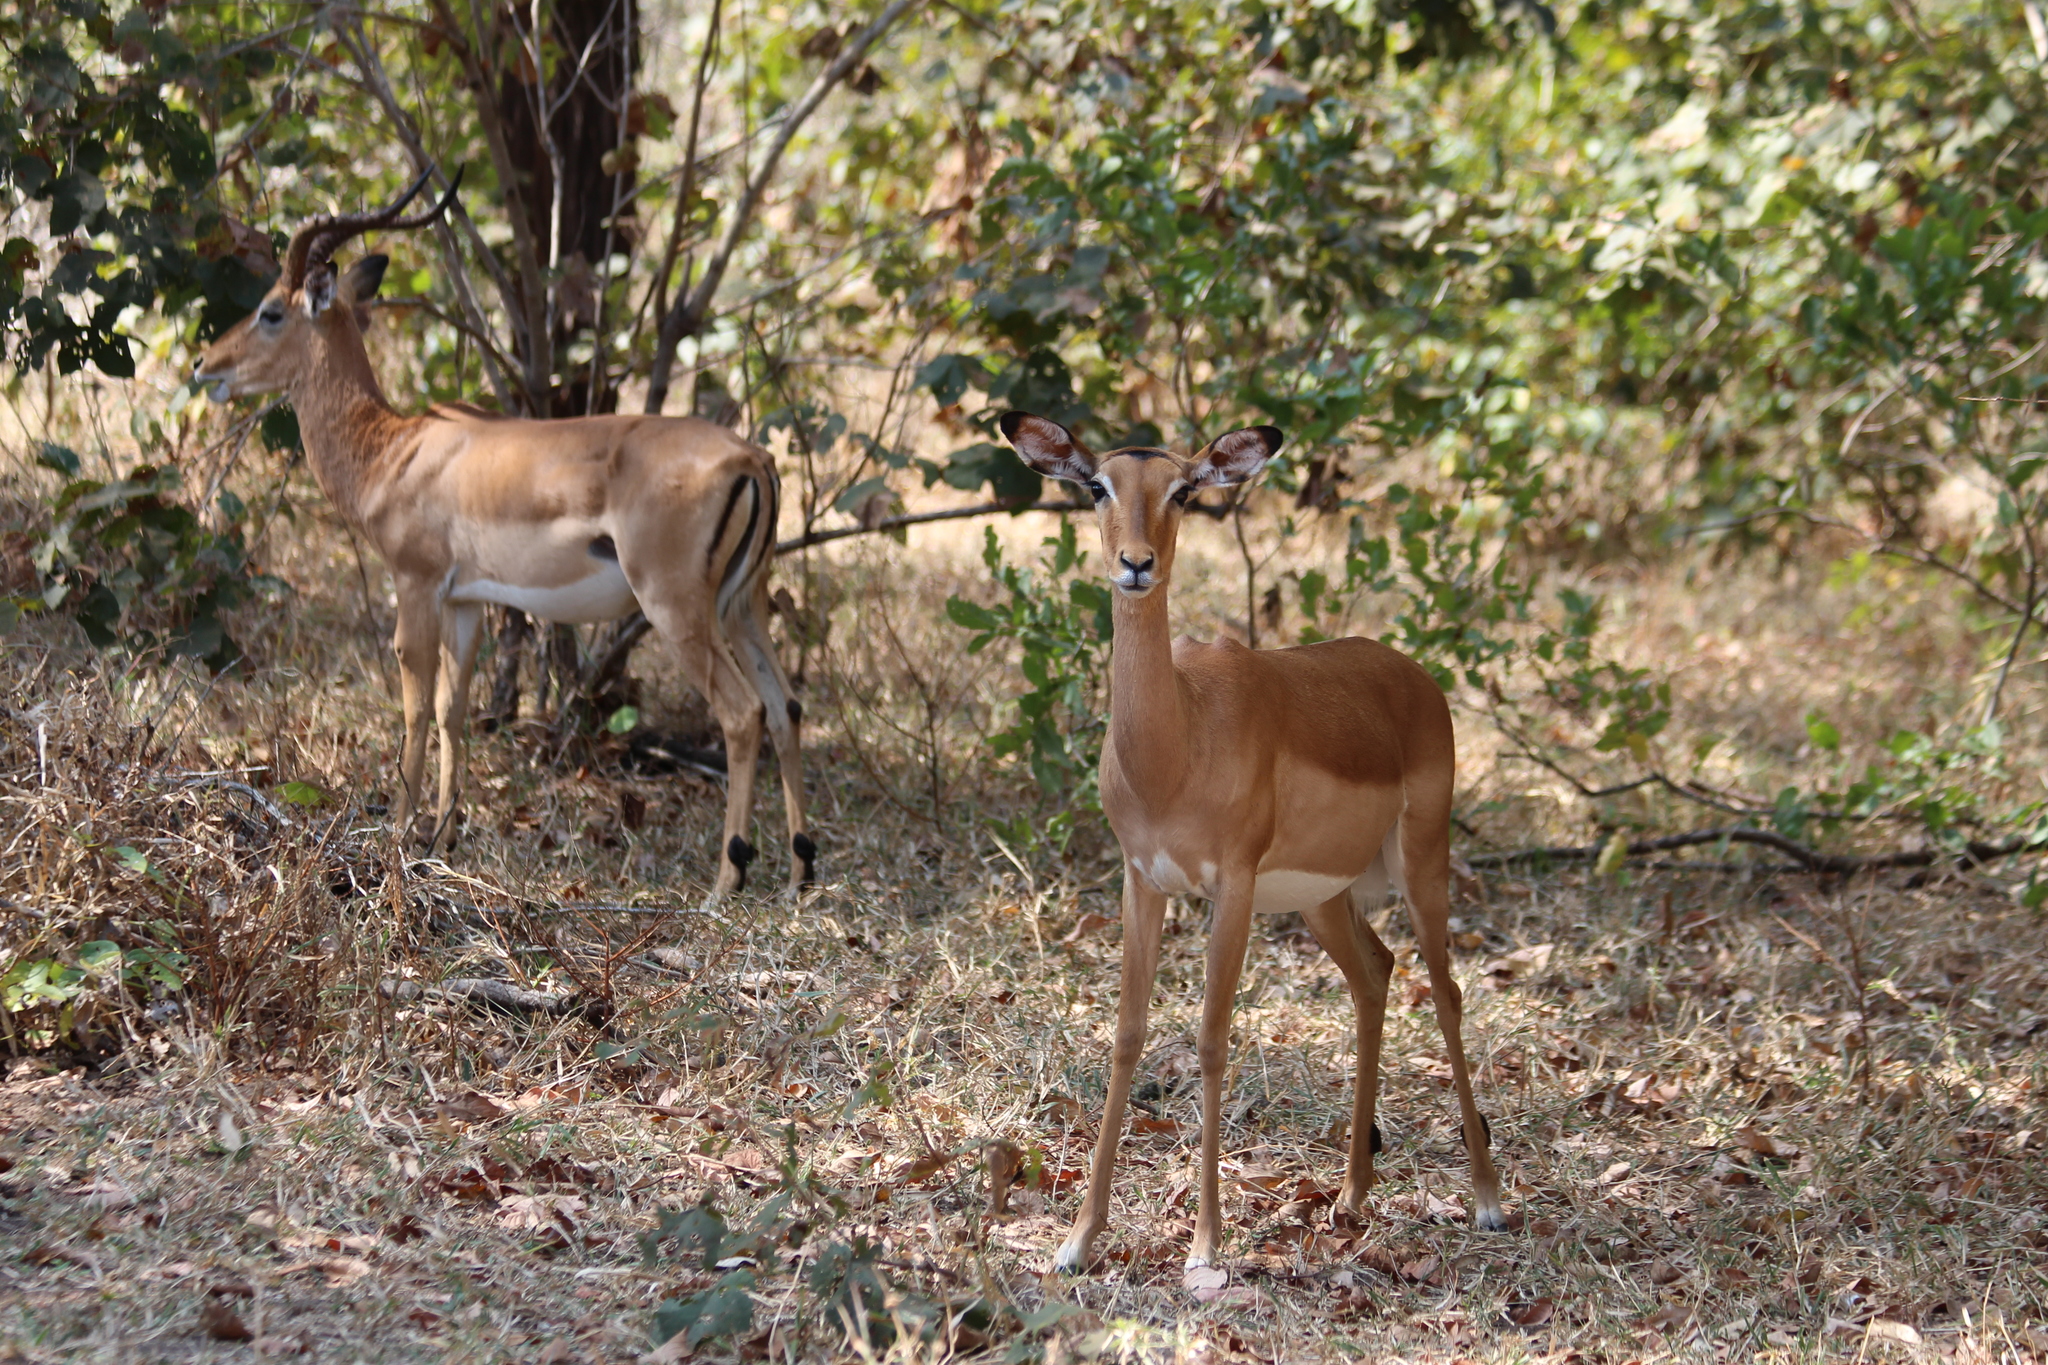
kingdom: Animalia
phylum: Chordata
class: Mammalia
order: Artiodactyla
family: Bovidae
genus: Aepyceros
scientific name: Aepyceros melampus
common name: Impala
